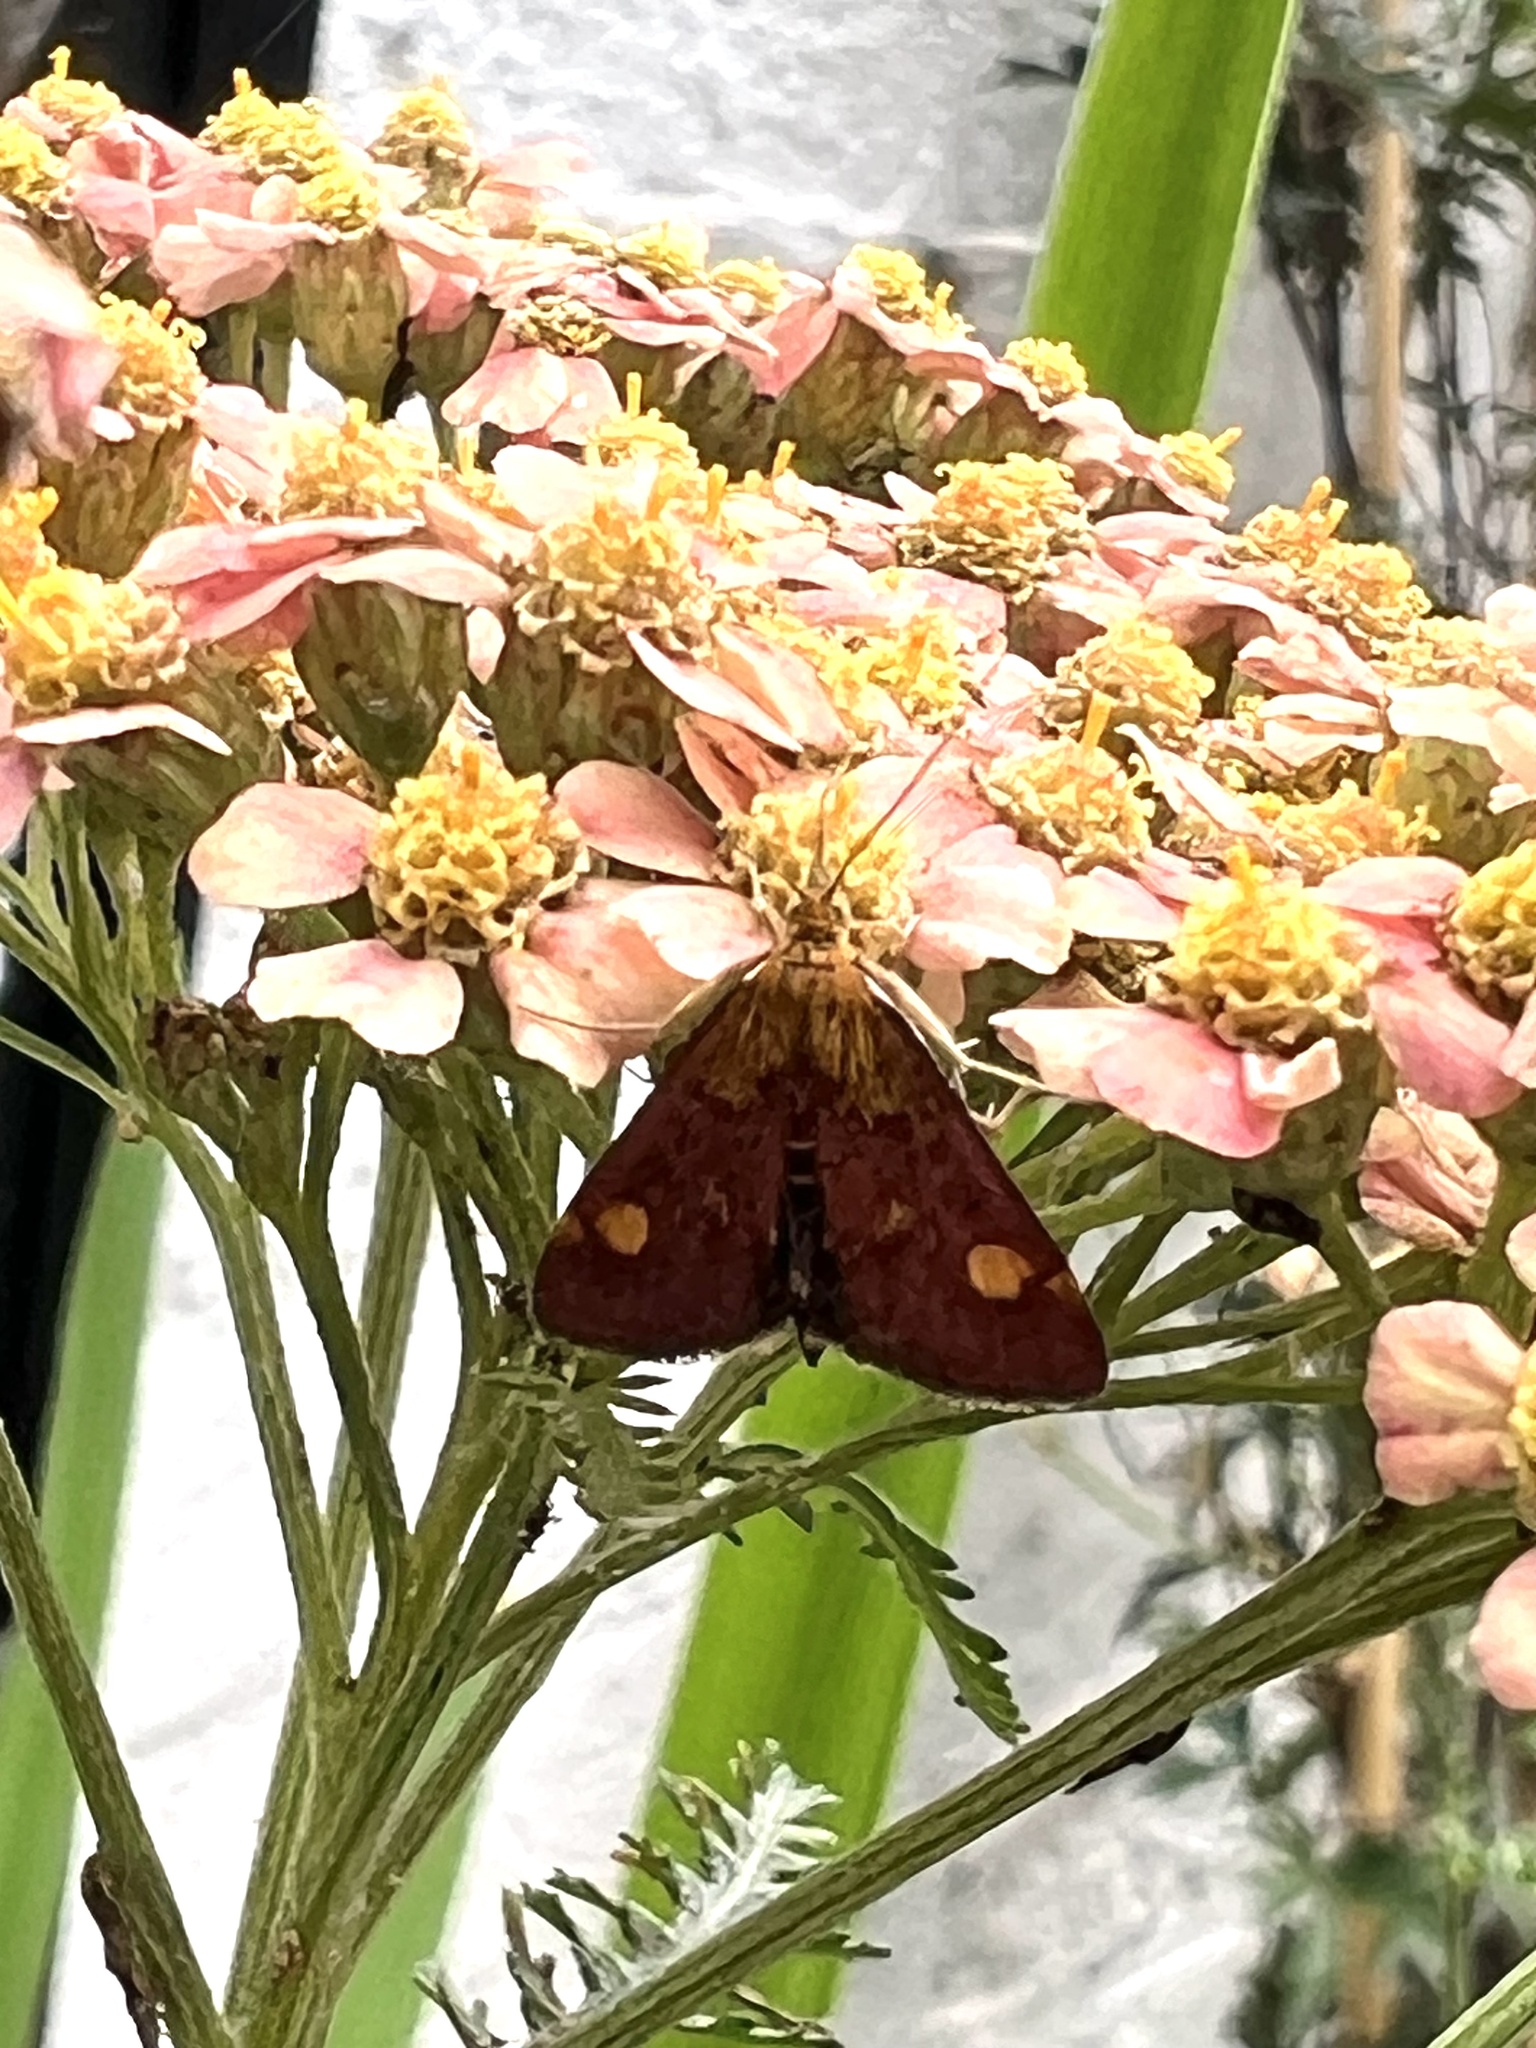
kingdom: Animalia
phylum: Arthropoda
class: Insecta
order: Lepidoptera
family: Crambidae
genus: Pyrausta
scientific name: Pyrausta aurata
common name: Small purple & gold
